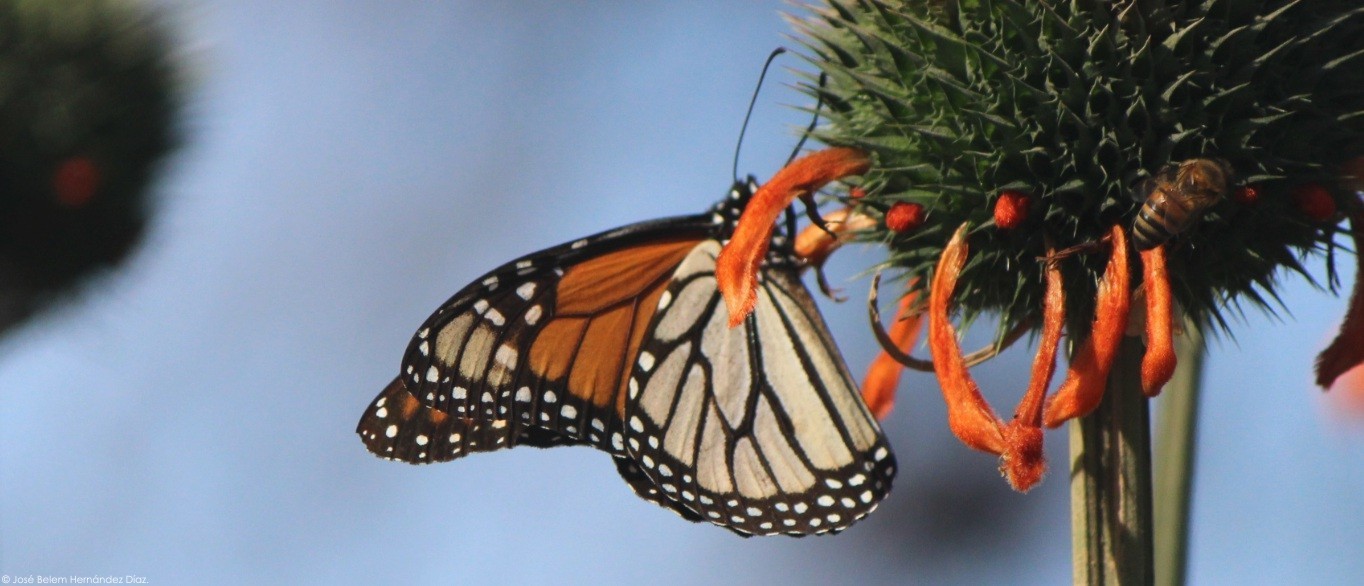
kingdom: Animalia
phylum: Arthropoda
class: Insecta
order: Lepidoptera
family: Nymphalidae
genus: Danaus
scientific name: Danaus plexippus
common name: Monarch
